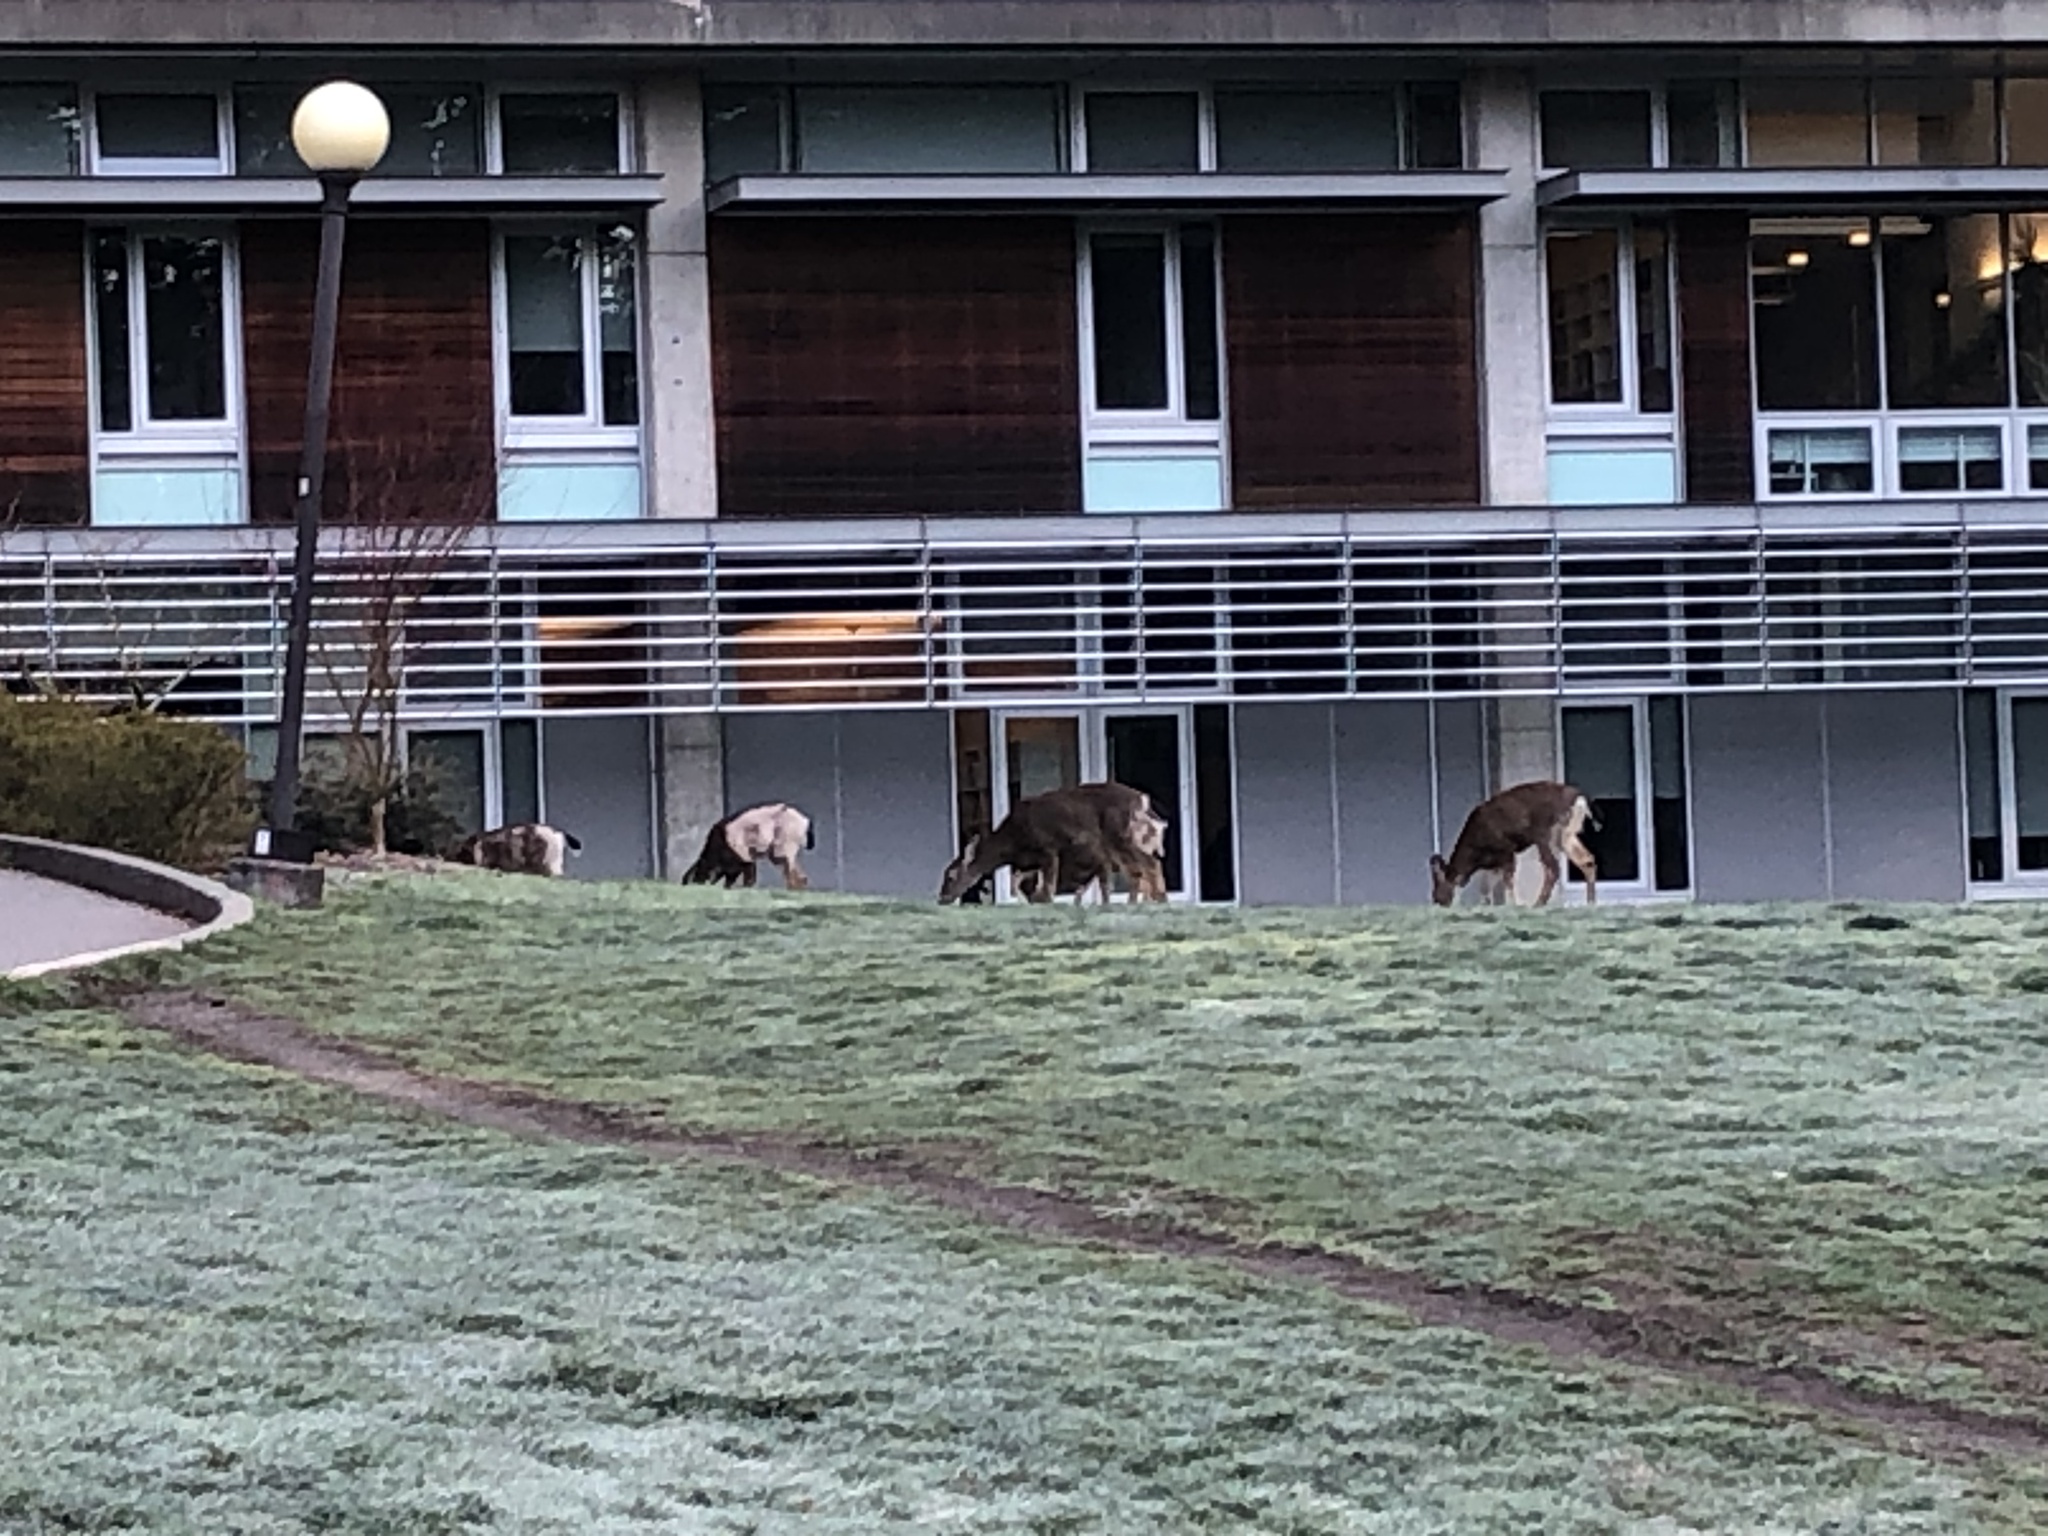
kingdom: Animalia
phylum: Chordata
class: Mammalia
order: Artiodactyla
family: Cervidae
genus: Odocoileus
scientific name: Odocoileus hemionus
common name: Mule deer
